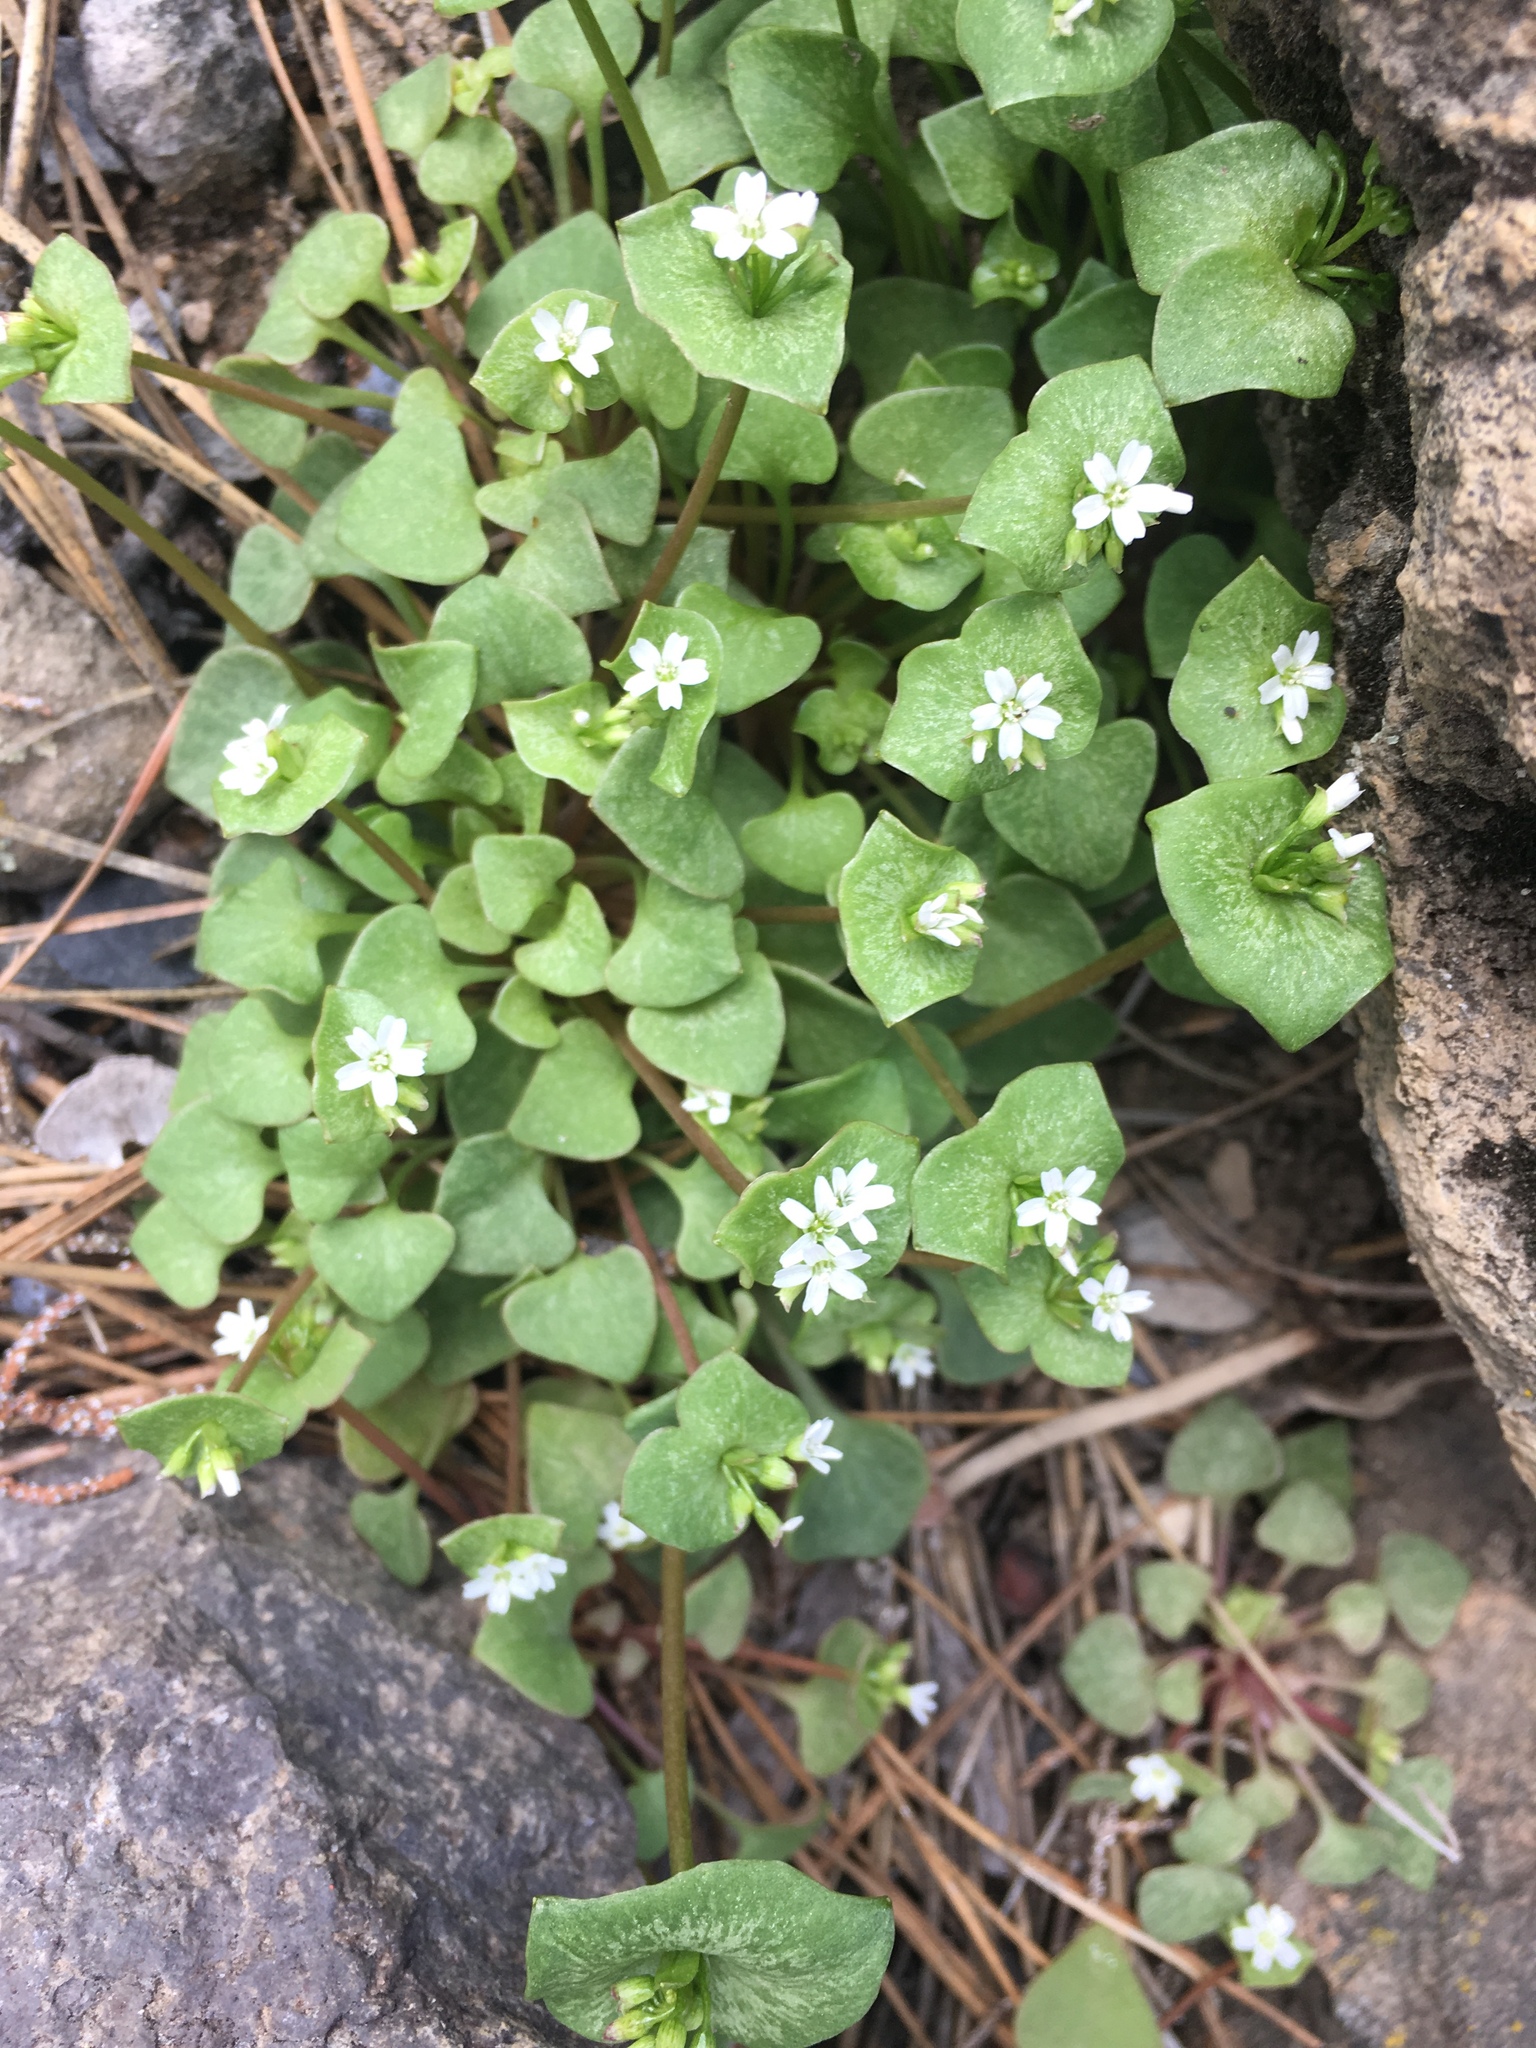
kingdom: Plantae
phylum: Tracheophyta
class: Magnoliopsida
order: Caryophyllales
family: Montiaceae
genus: Claytonia
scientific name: Claytonia rubra
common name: Erubescent miner's-lettuce
